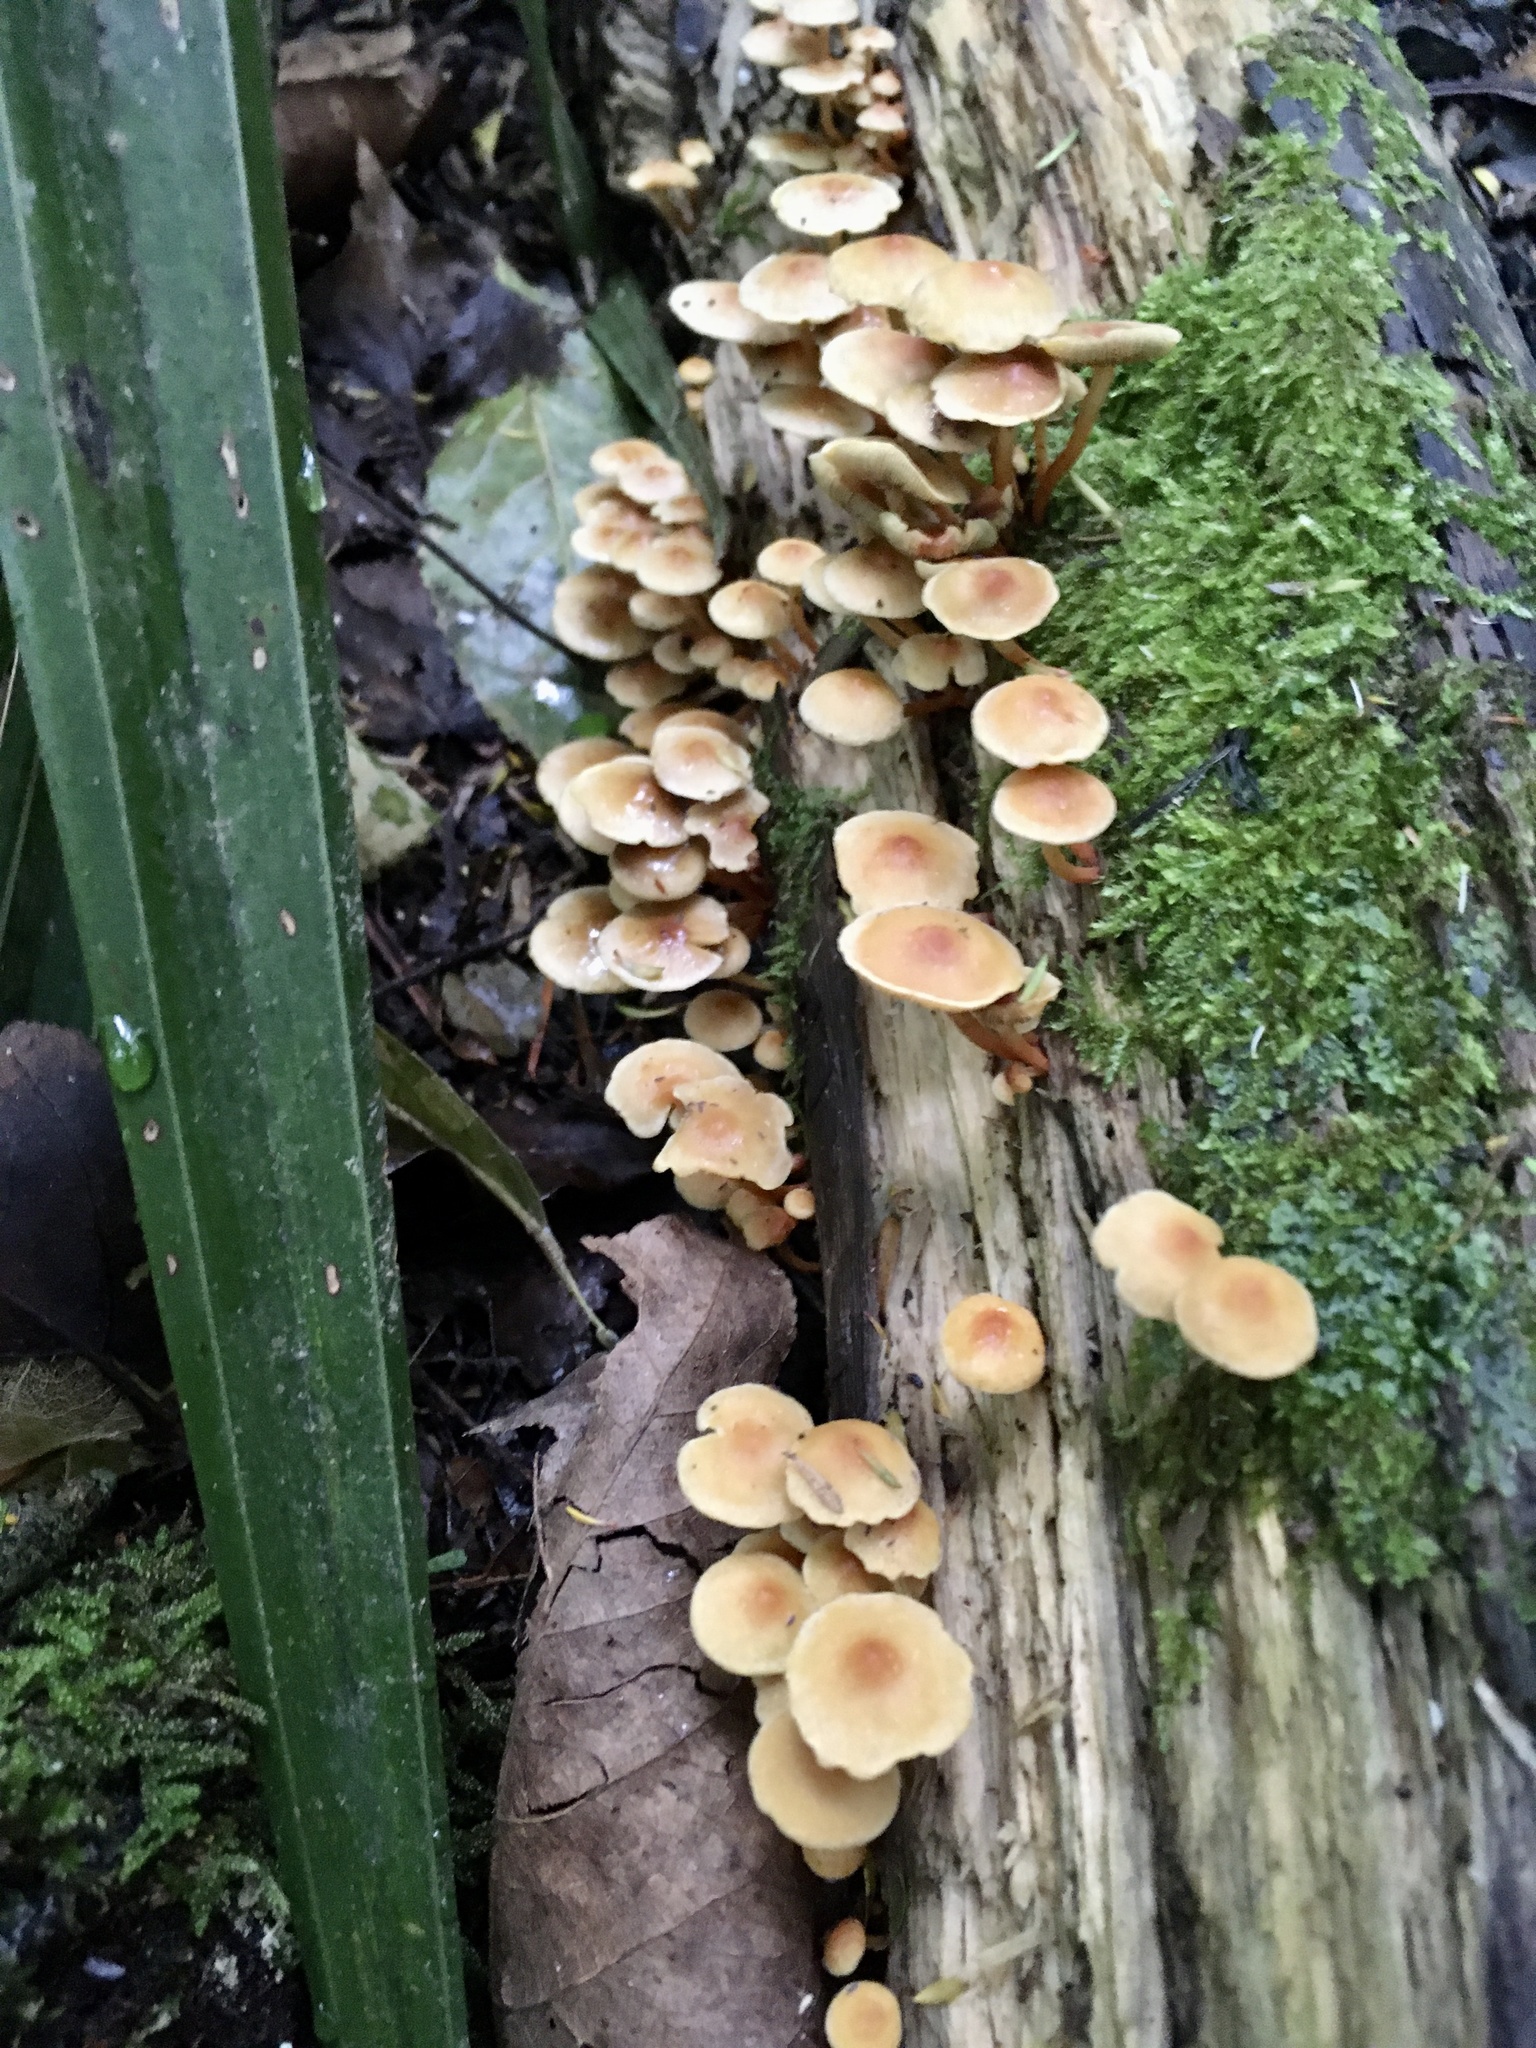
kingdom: Fungi
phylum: Basidiomycota
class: Agaricomycetes
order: Agaricales
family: Strophariaceae
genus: Hypholoma
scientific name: Hypholoma acutum
